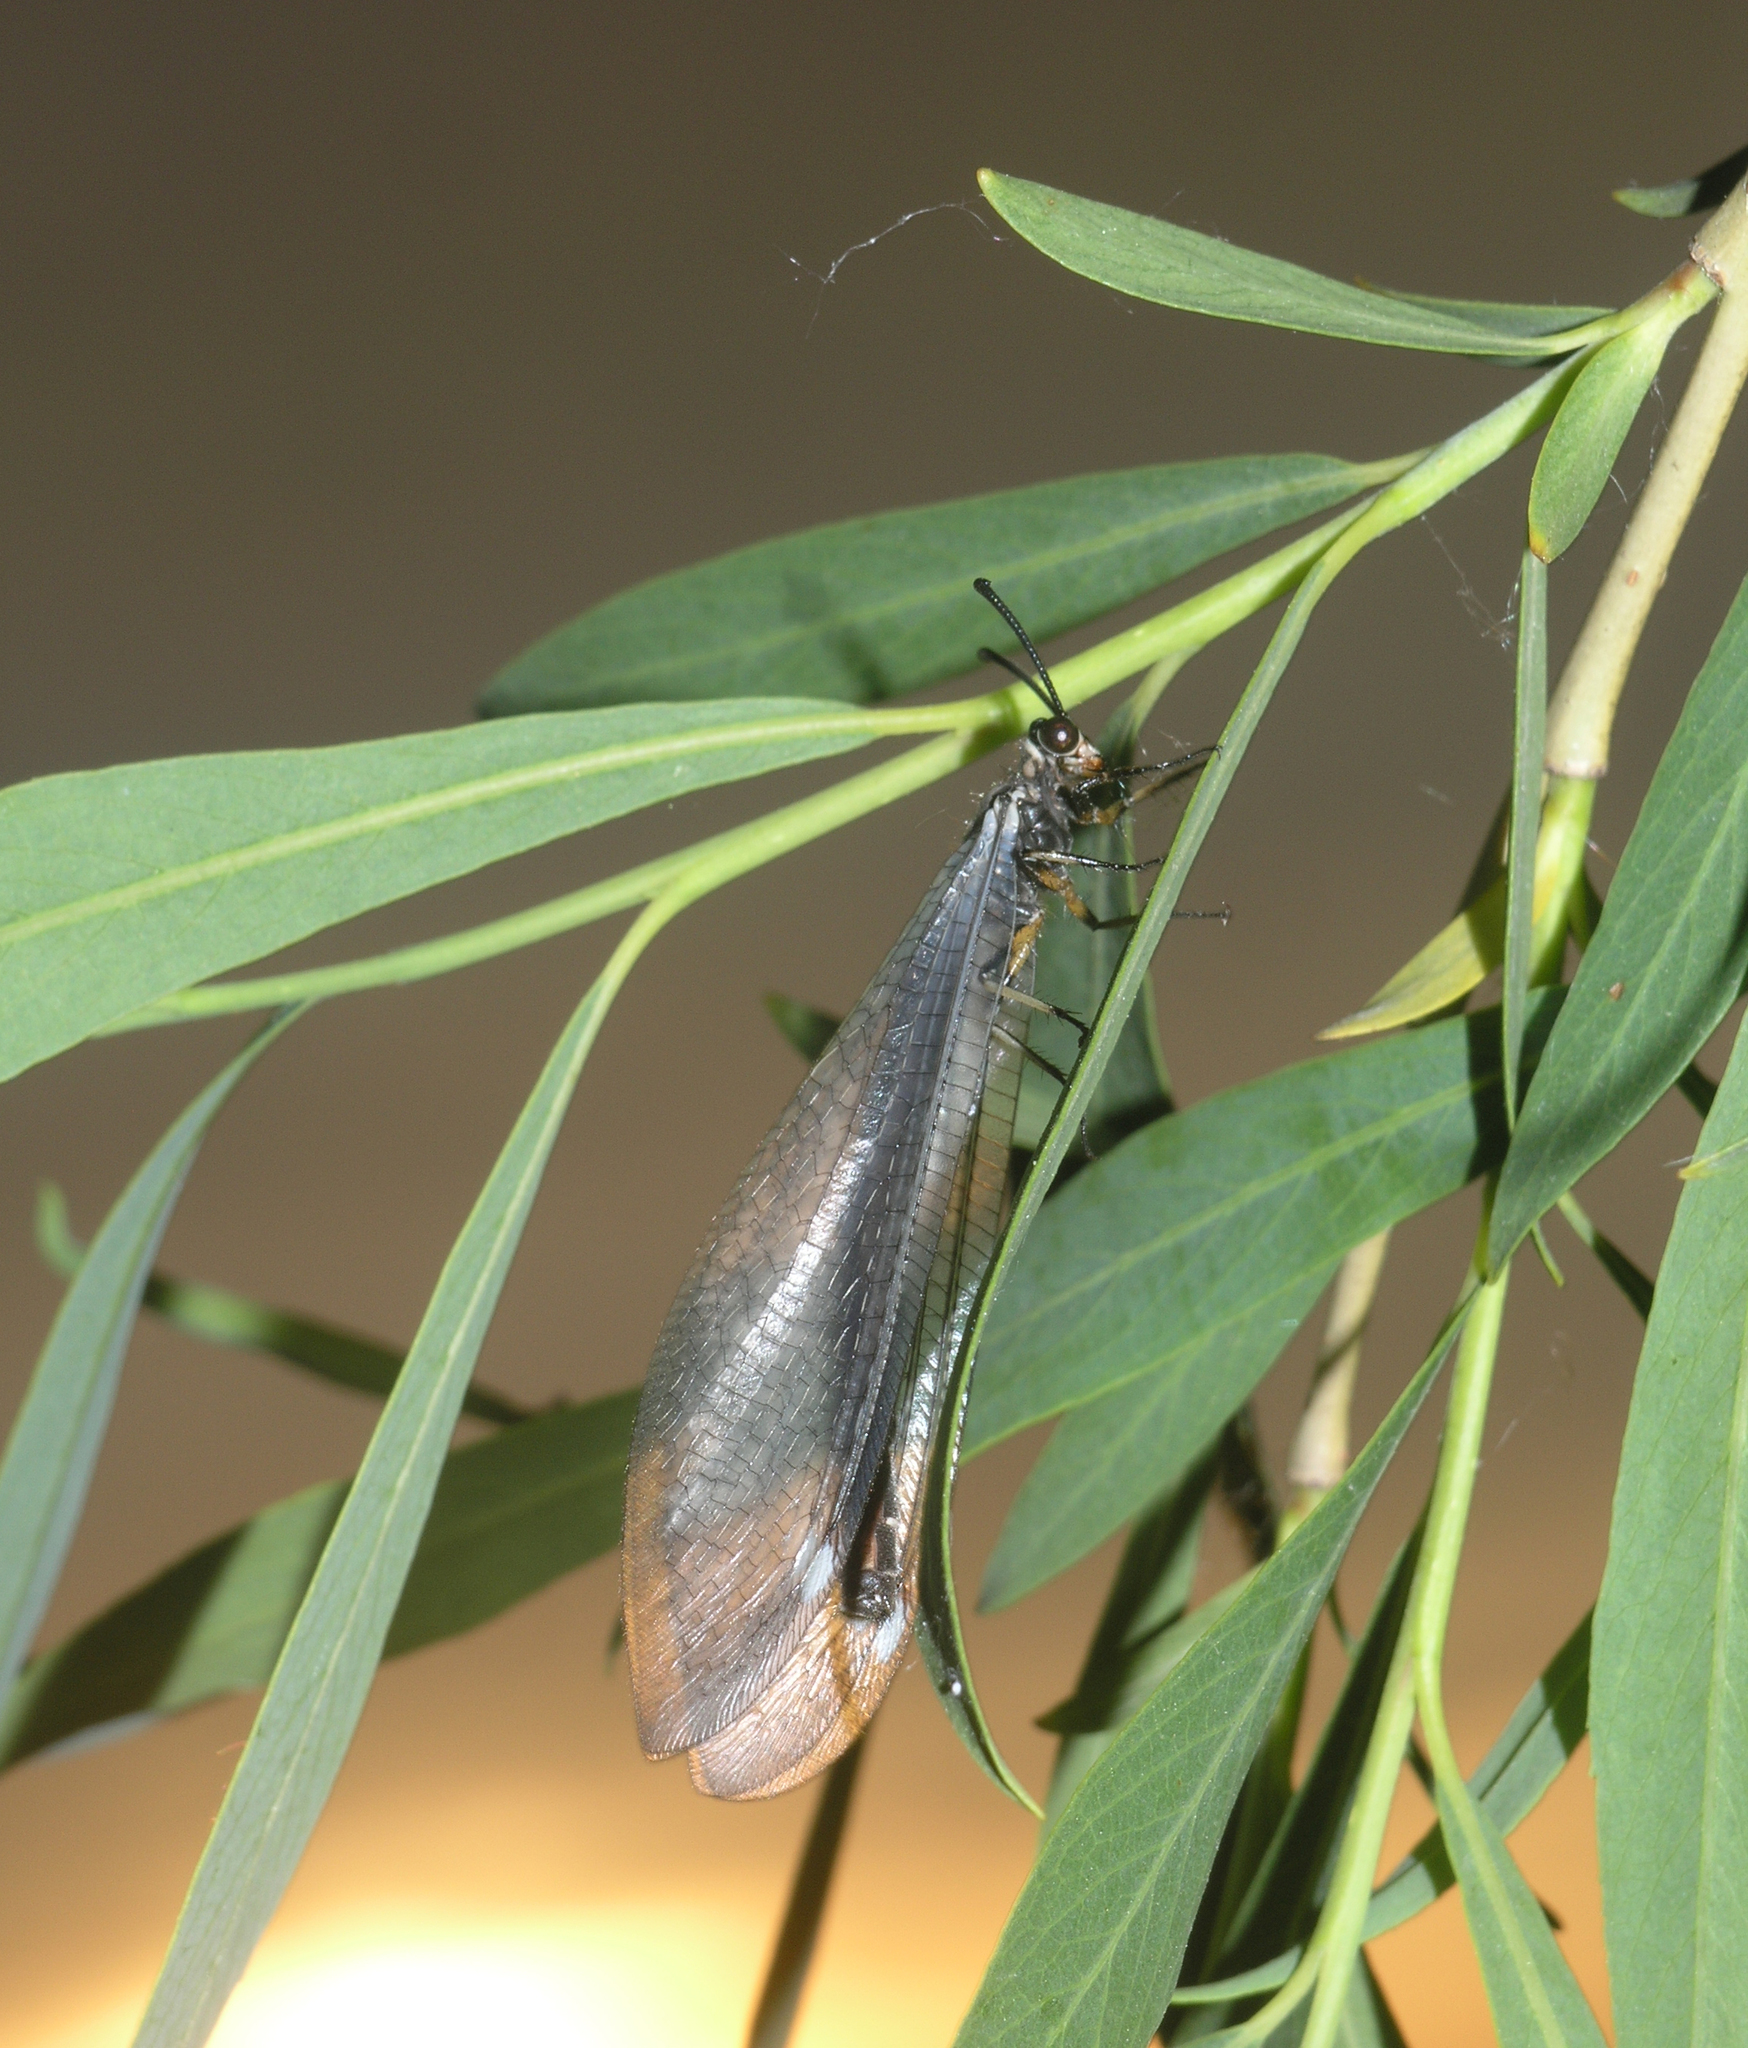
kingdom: Animalia
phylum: Arthropoda
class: Insecta
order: Neuroptera
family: Myrmeleontidae
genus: Myrmeleon
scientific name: Myrmeleon formicarius
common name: Ant-lion
